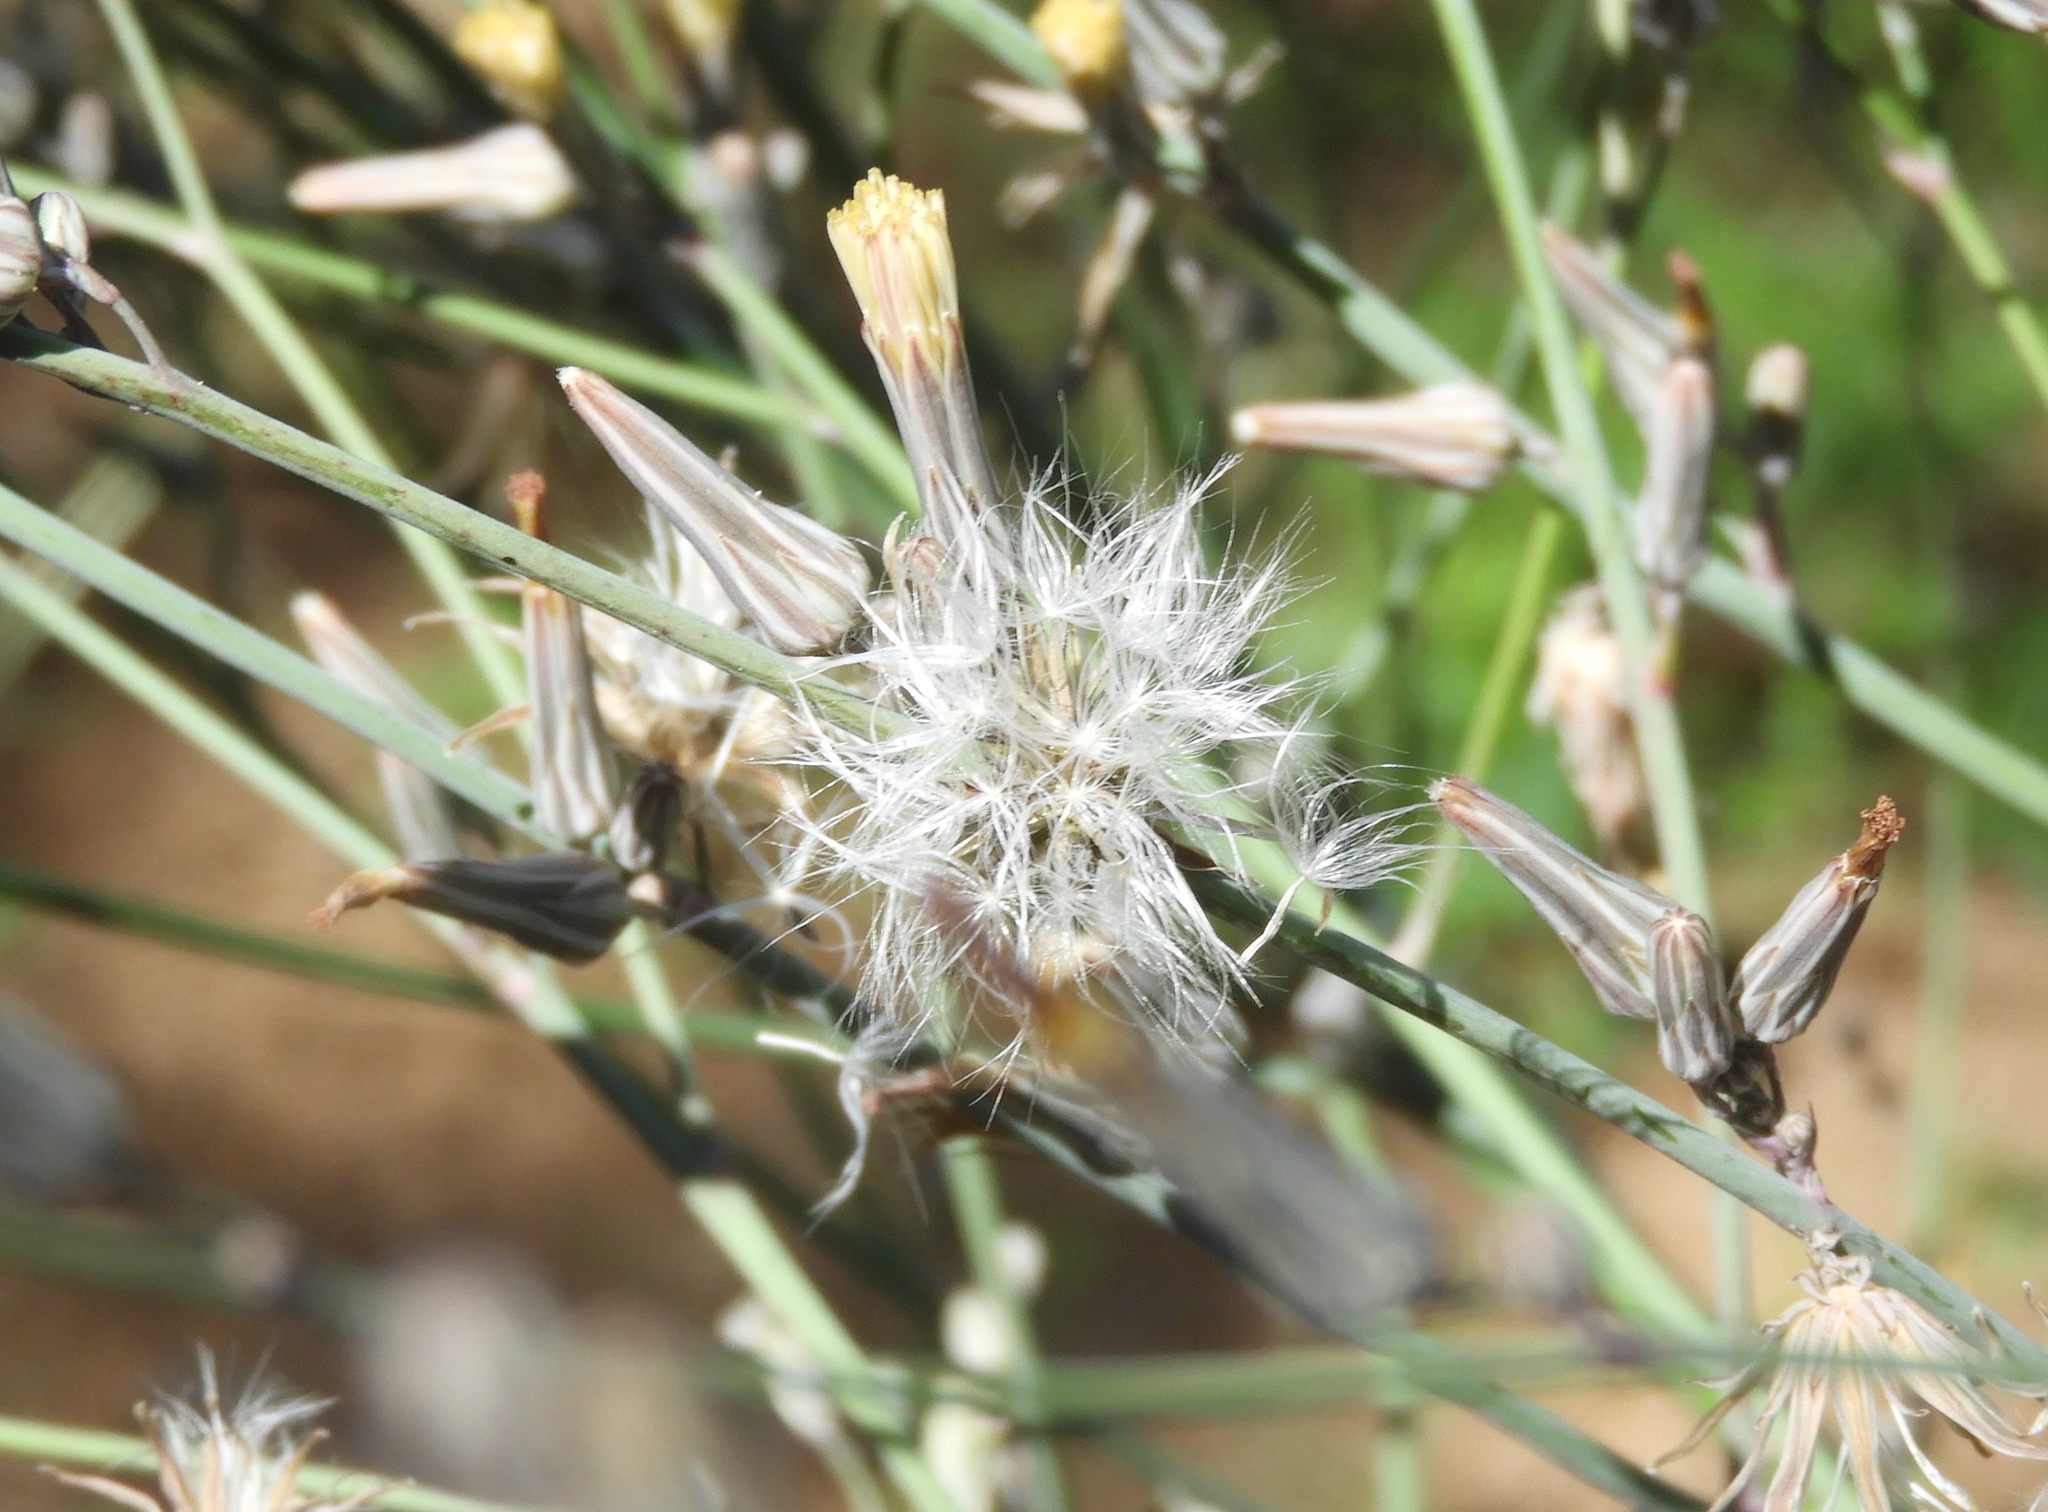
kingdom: Plantae
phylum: Tracheophyta
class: Magnoliopsida
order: Asterales
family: Asteraceae
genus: Launaea
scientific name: Launaea intybacea
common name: Achicoria azul
